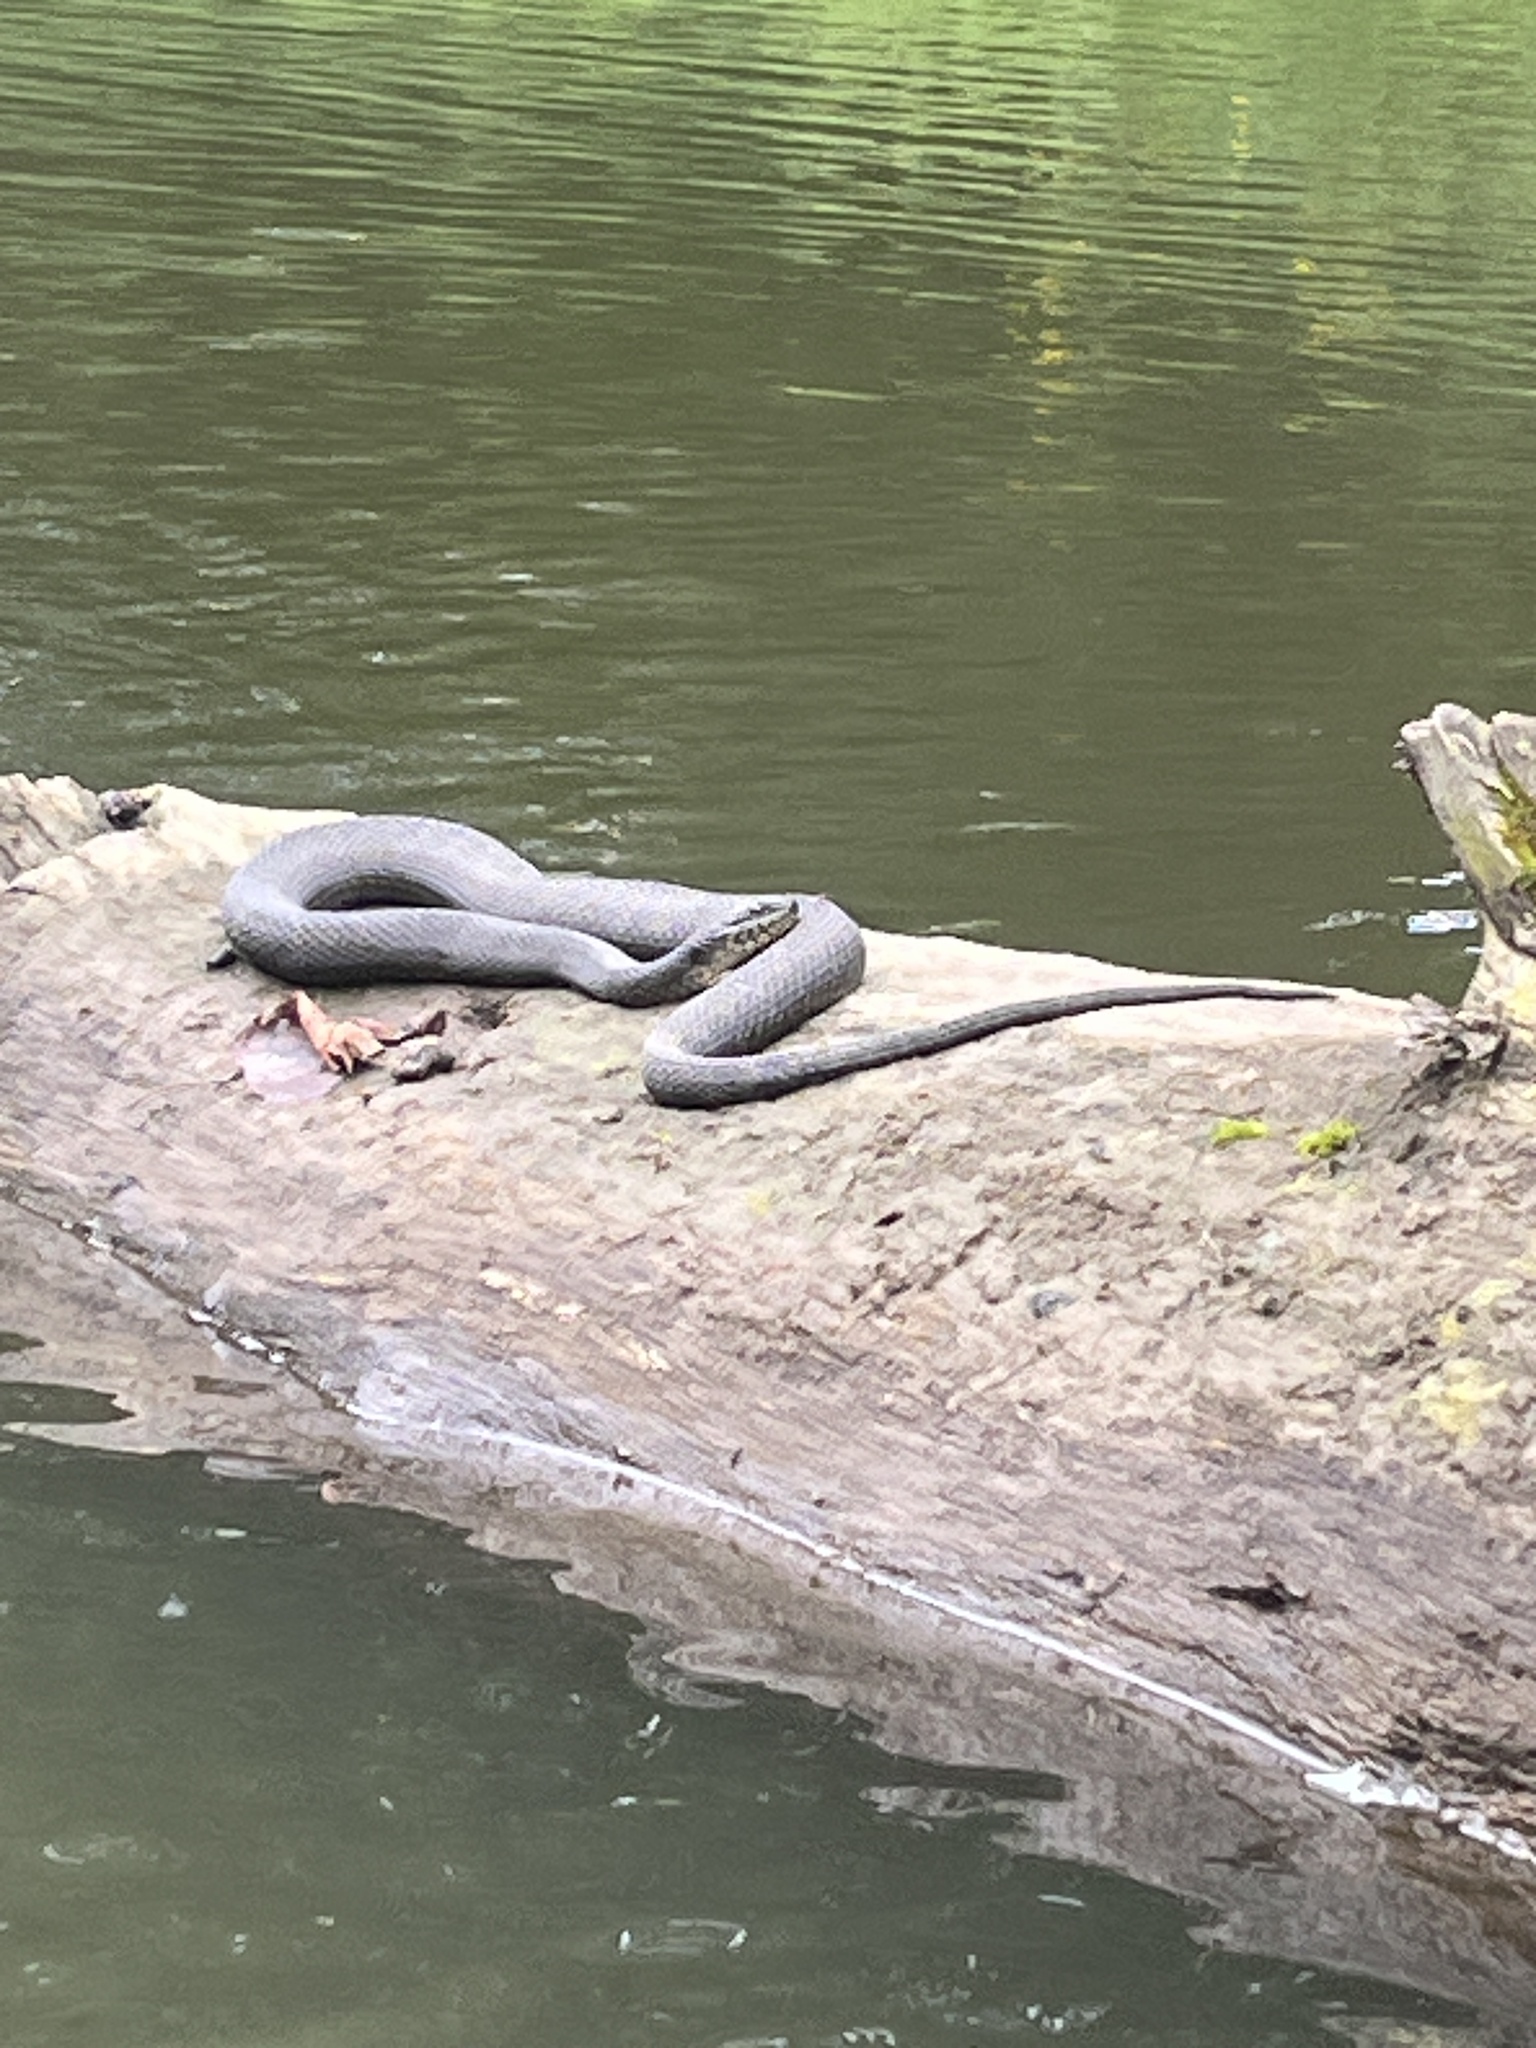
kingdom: Animalia
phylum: Chordata
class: Squamata
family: Colubridae
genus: Nerodia
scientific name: Nerodia sipedon
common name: Northern water snake
